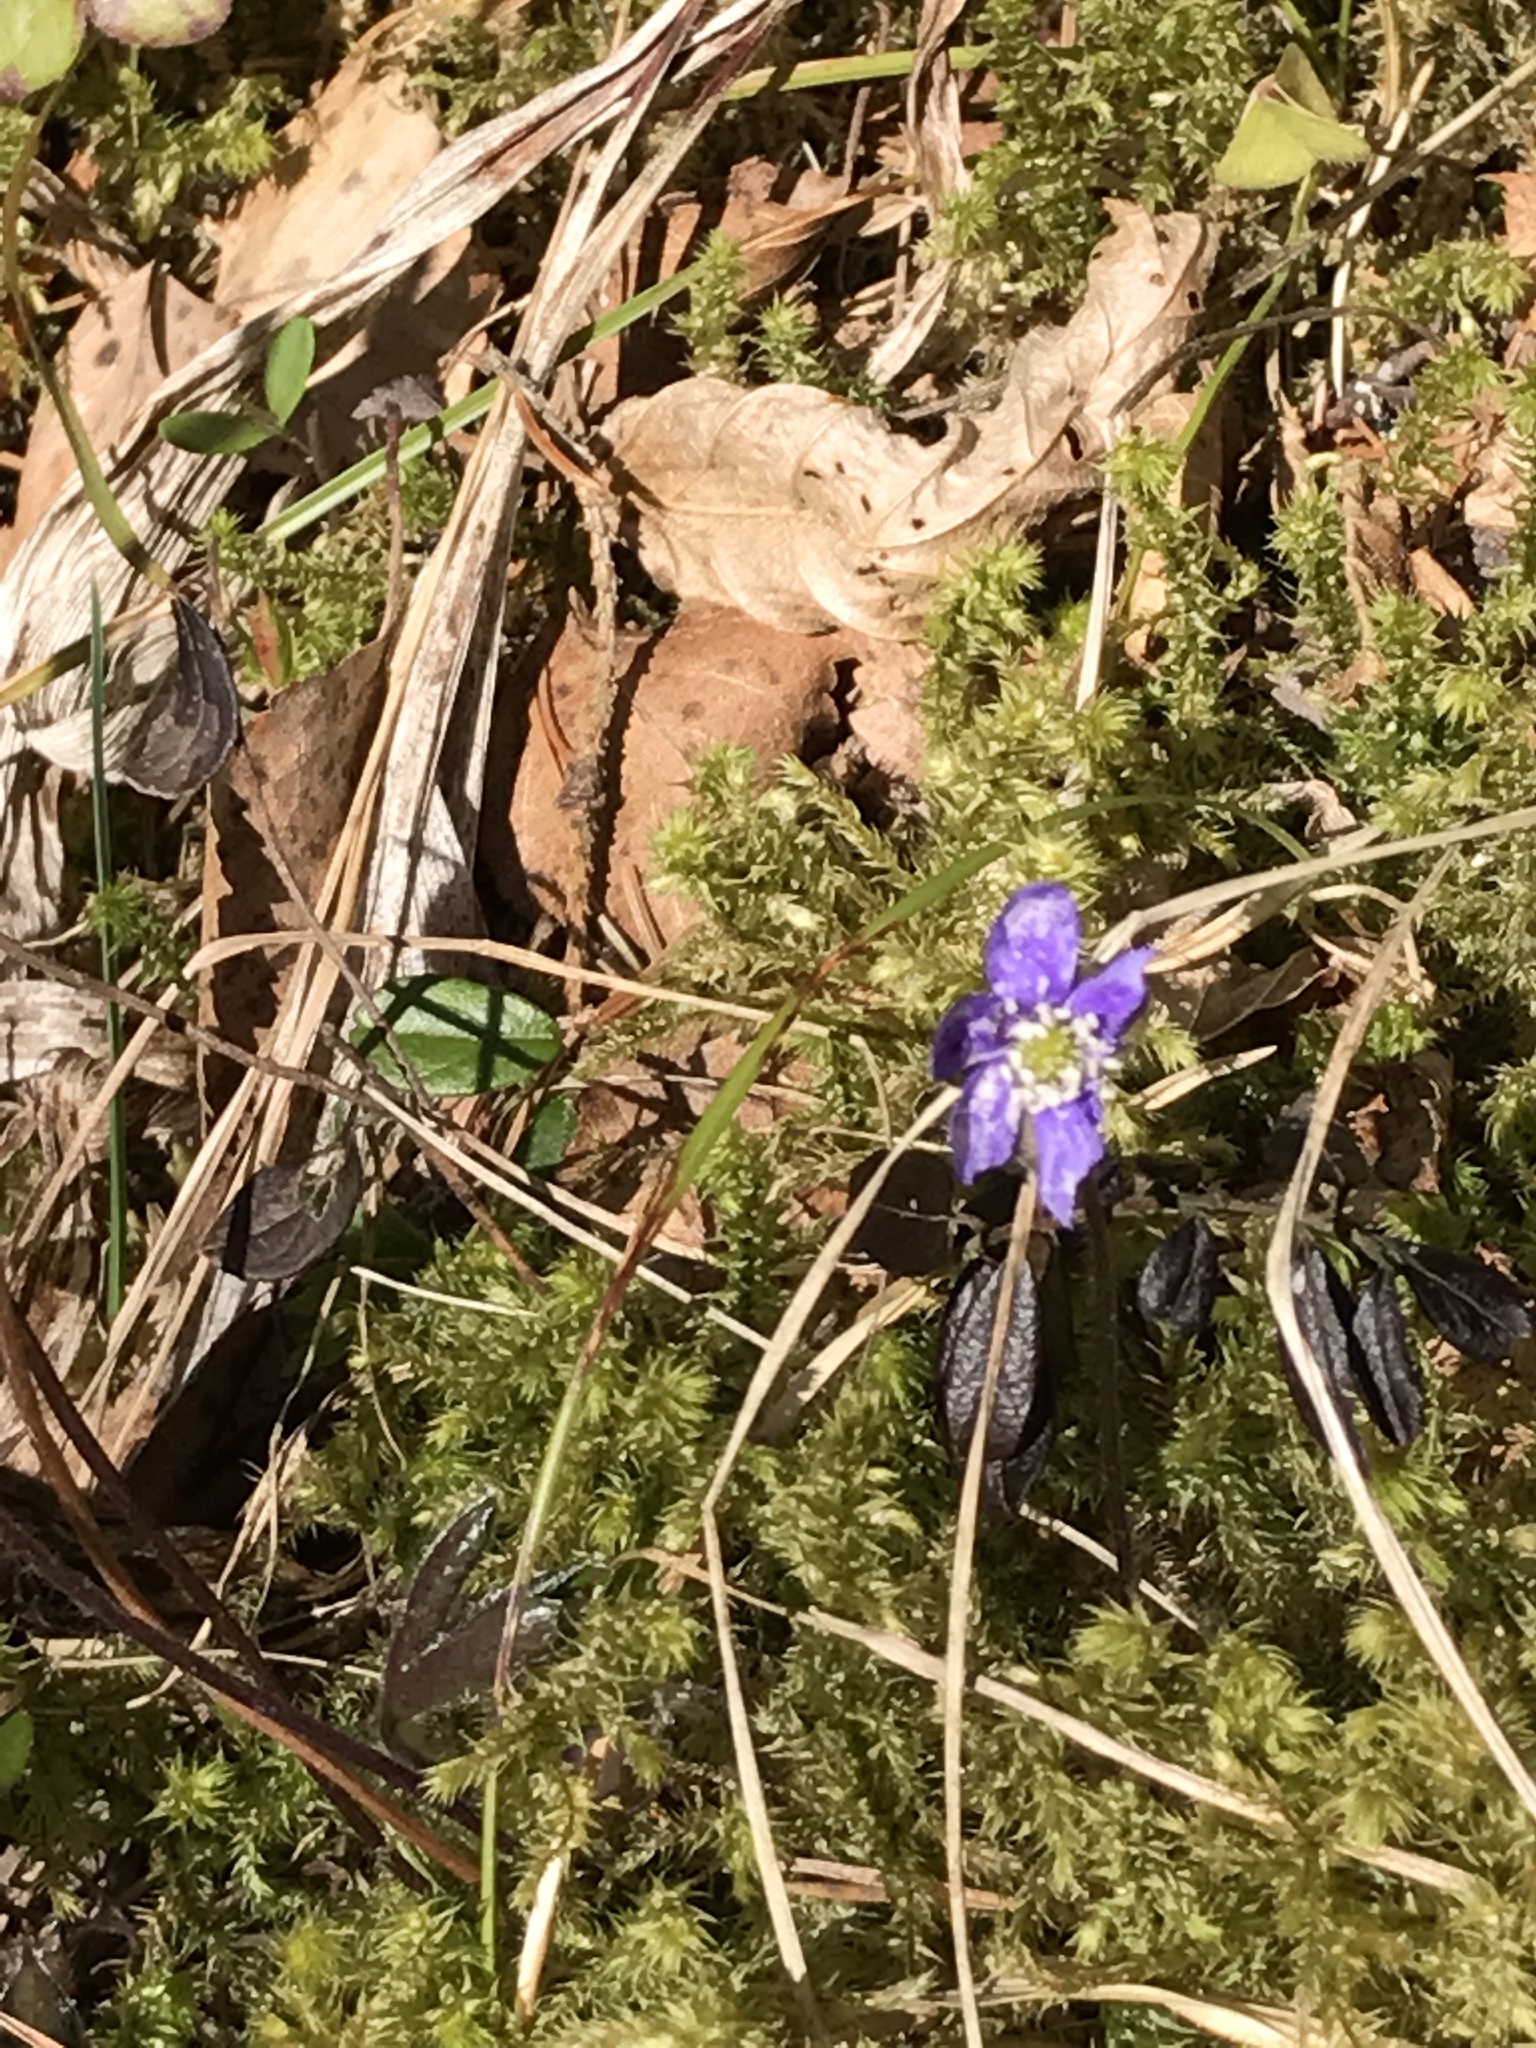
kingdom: Plantae
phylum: Tracheophyta
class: Magnoliopsida
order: Ranunculales
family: Ranunculaceae
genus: Hepatica
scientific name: Hepatica nobilis
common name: Liverleaf
